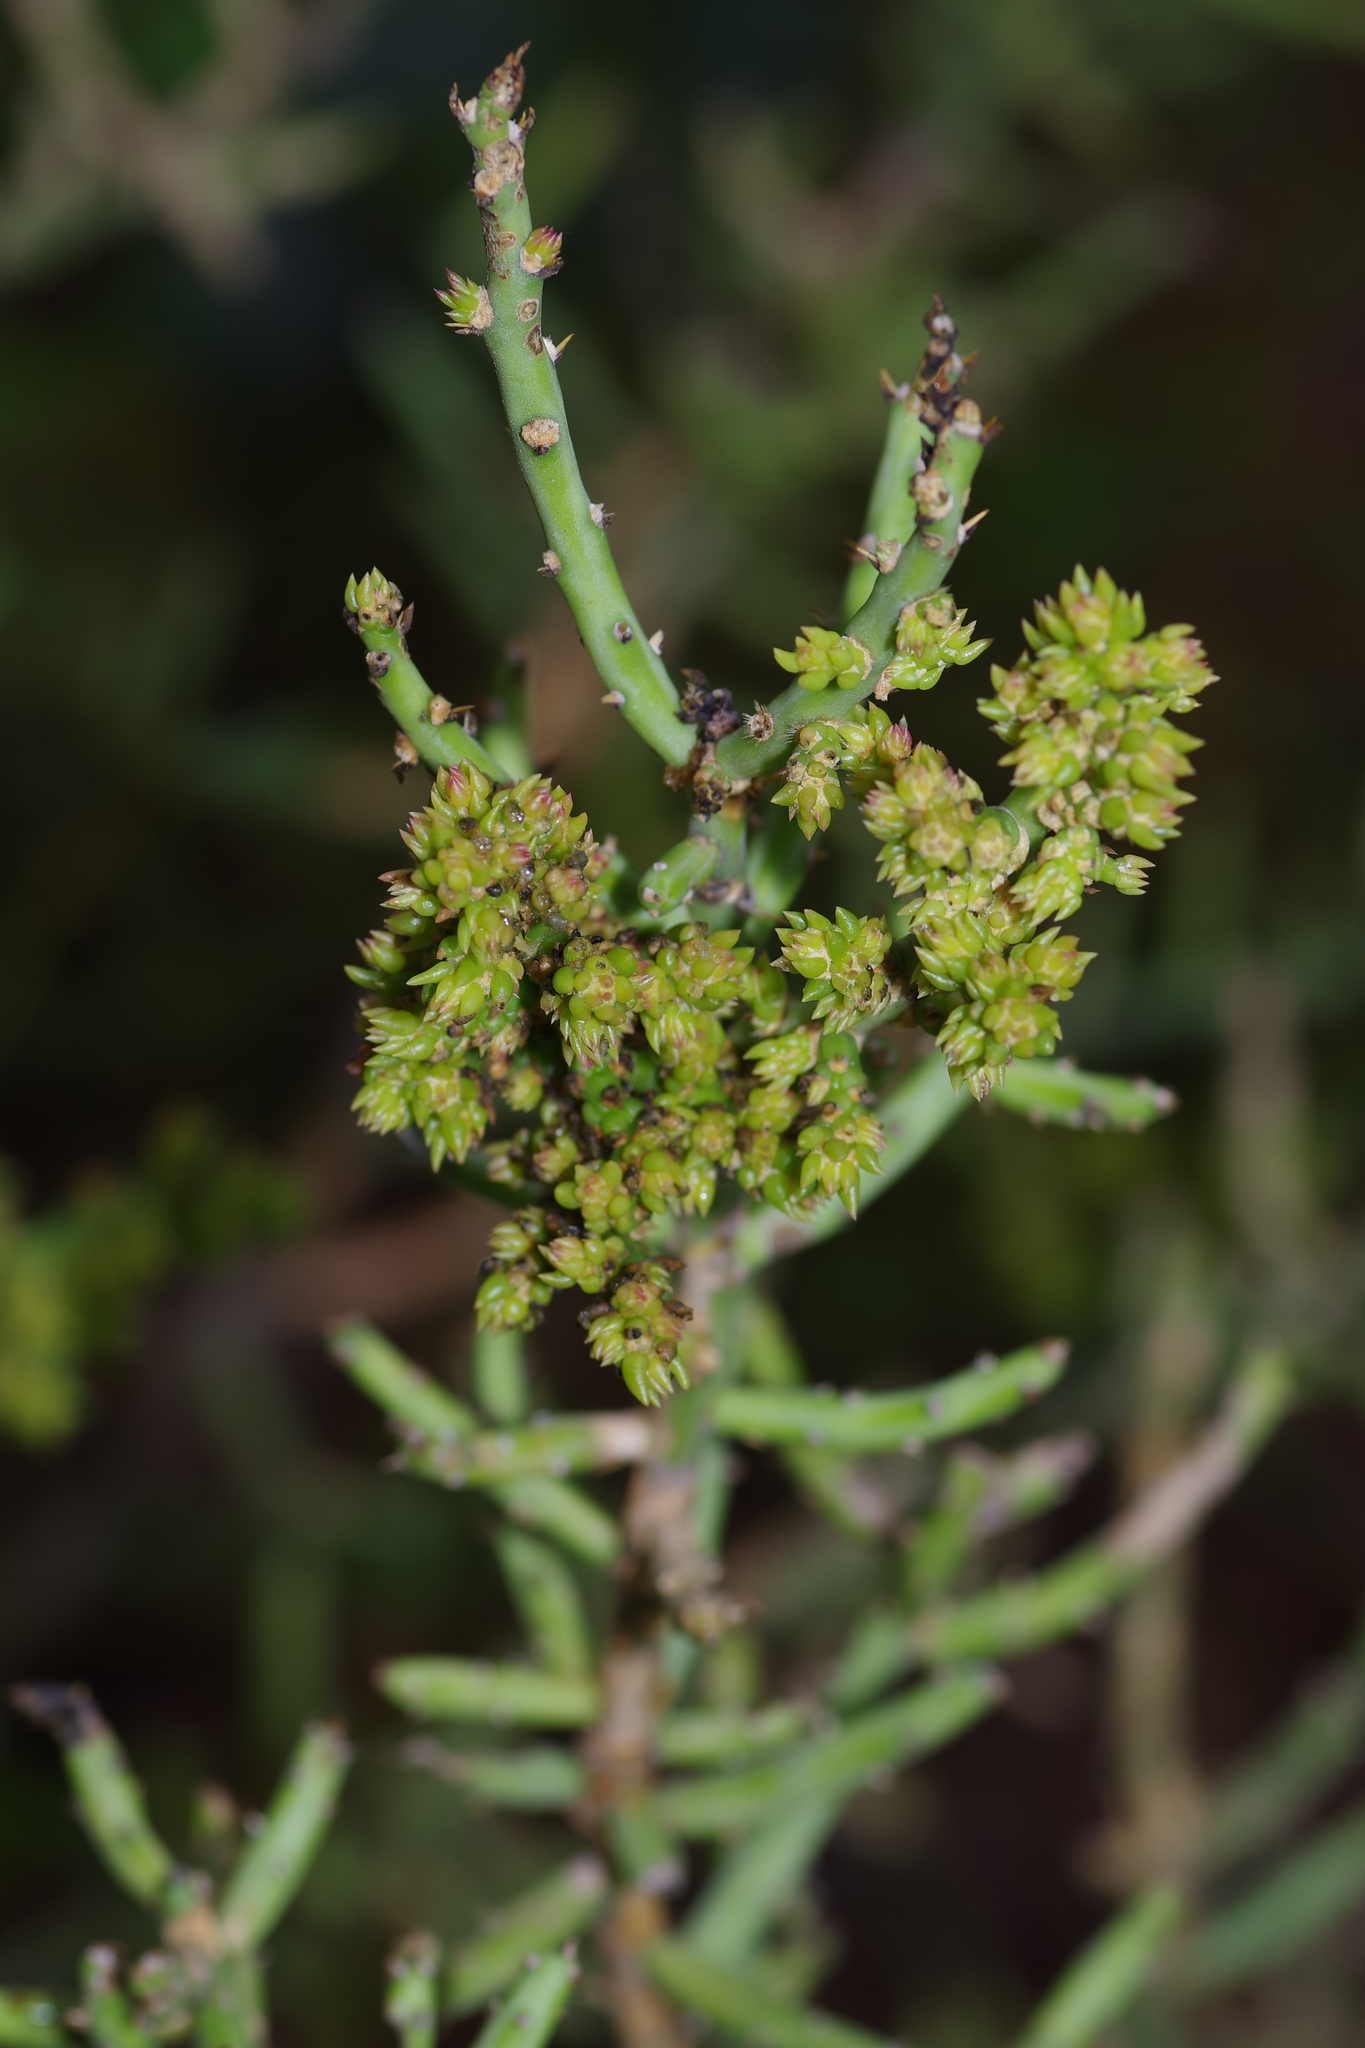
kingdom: Plantae
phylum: Tracheophyta
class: Magnoliopsida
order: Caryophyllales
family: Cactaceae
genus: Cylindropuntia
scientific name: Cylindropuntia leptocaulis
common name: Christmas cactus
